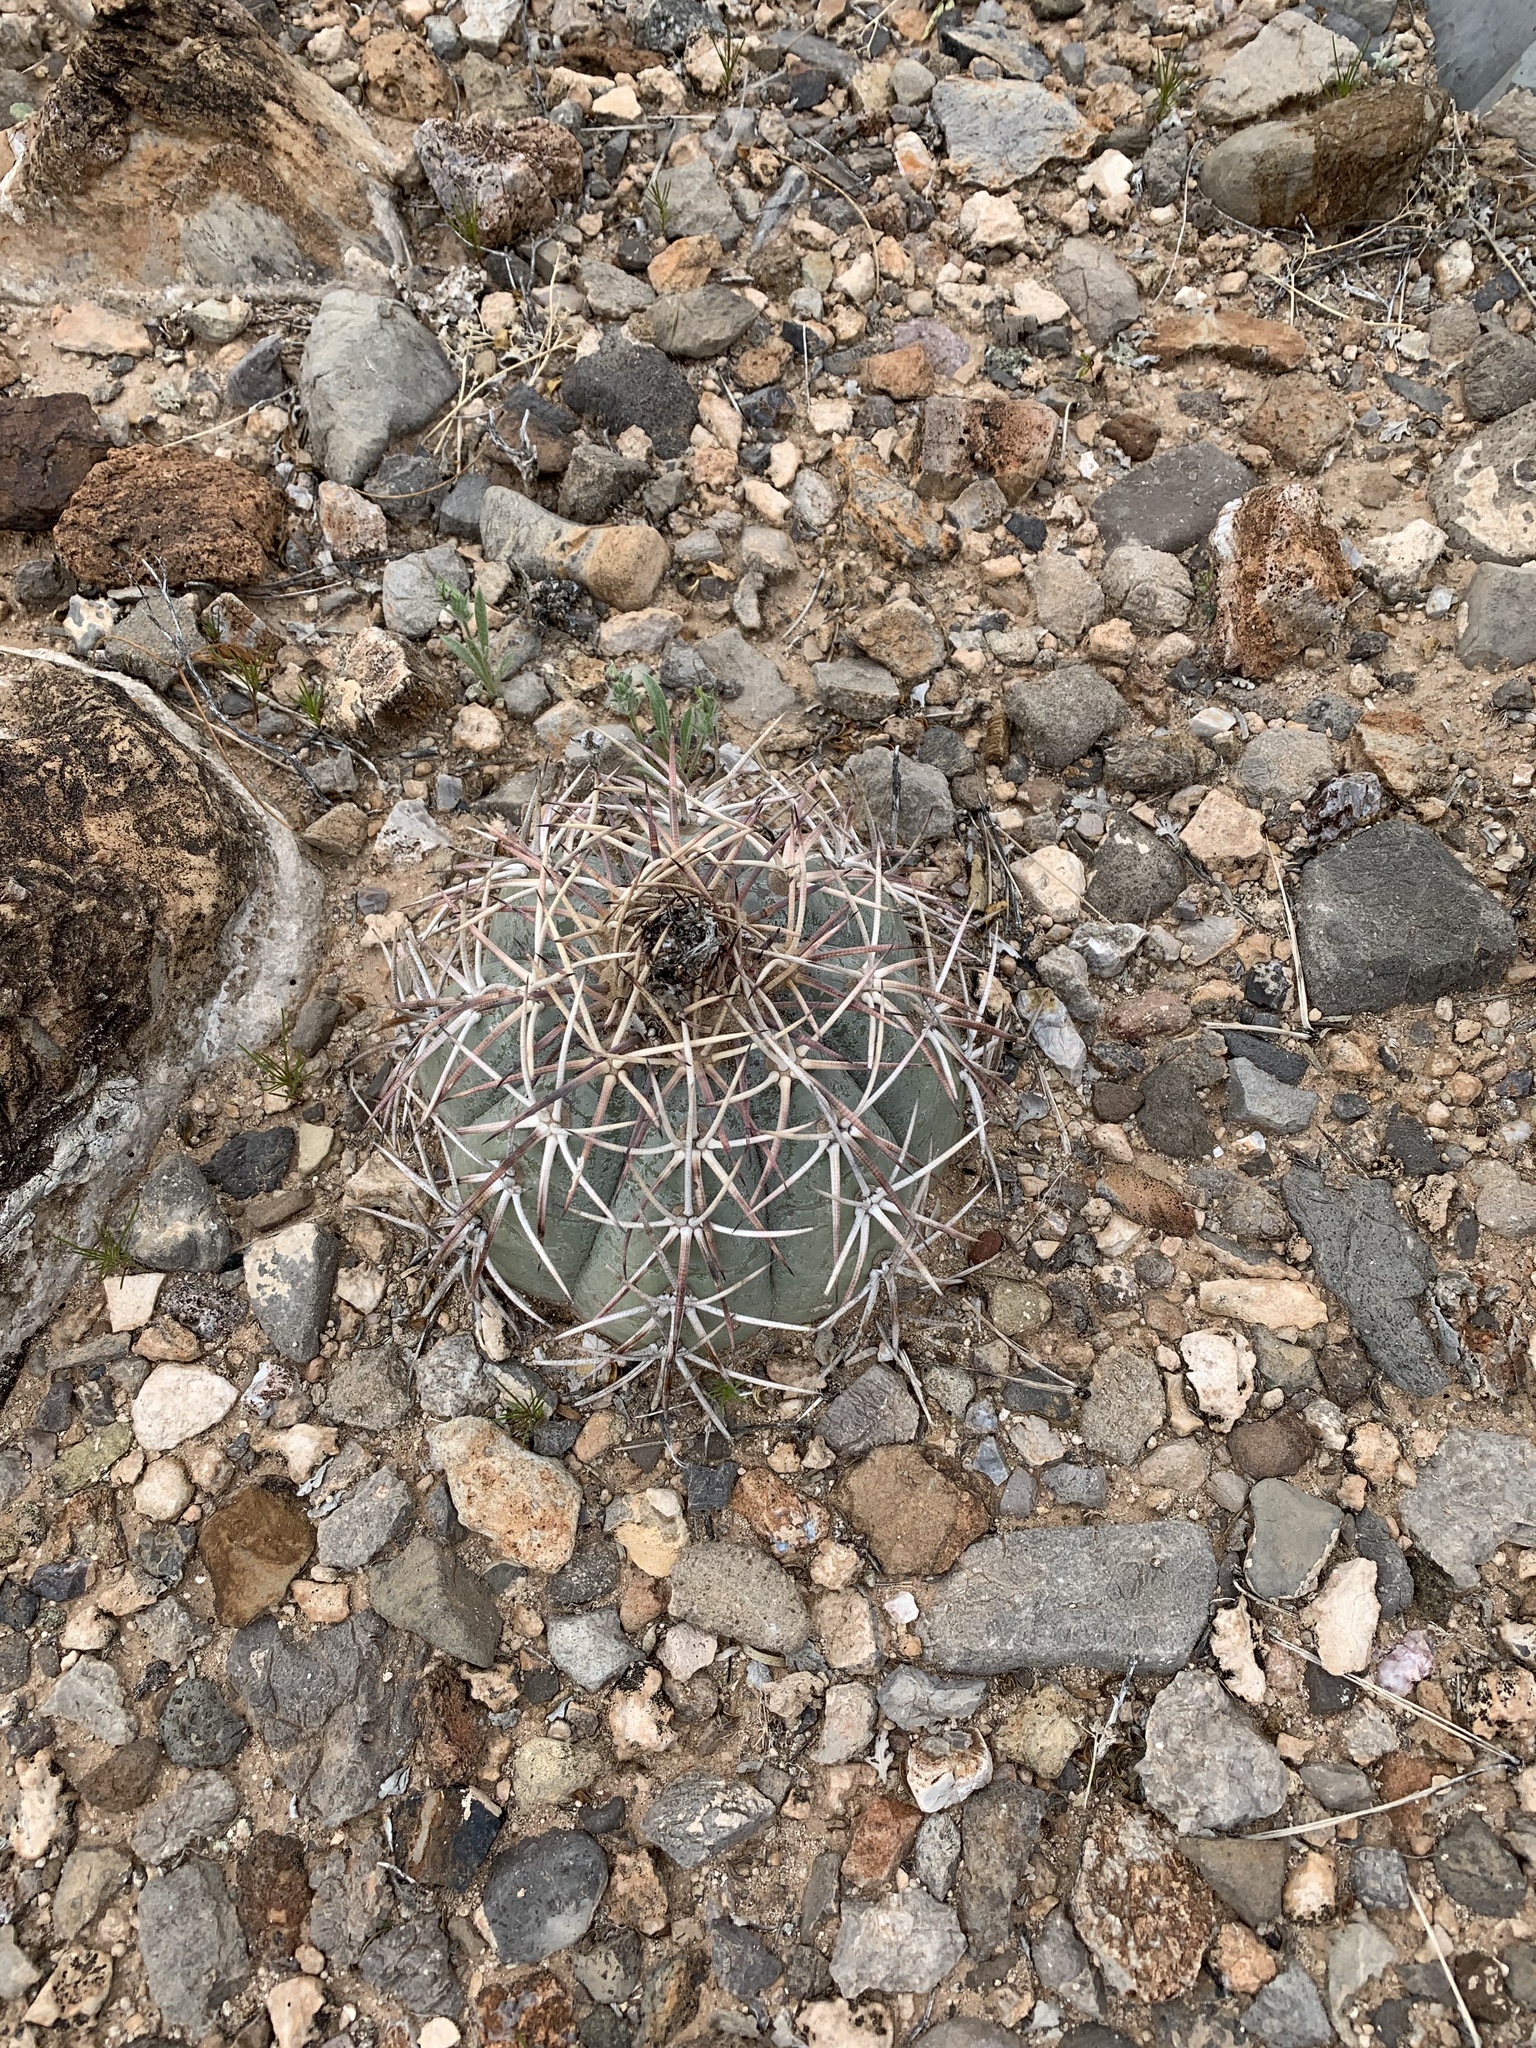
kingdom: Plantae
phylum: Tracheophyta
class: Magnoliopsida
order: Caryophyllales
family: Cactaceae
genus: Echinocactus
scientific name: Echinocactus horizonthalonius
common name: Devilshead
